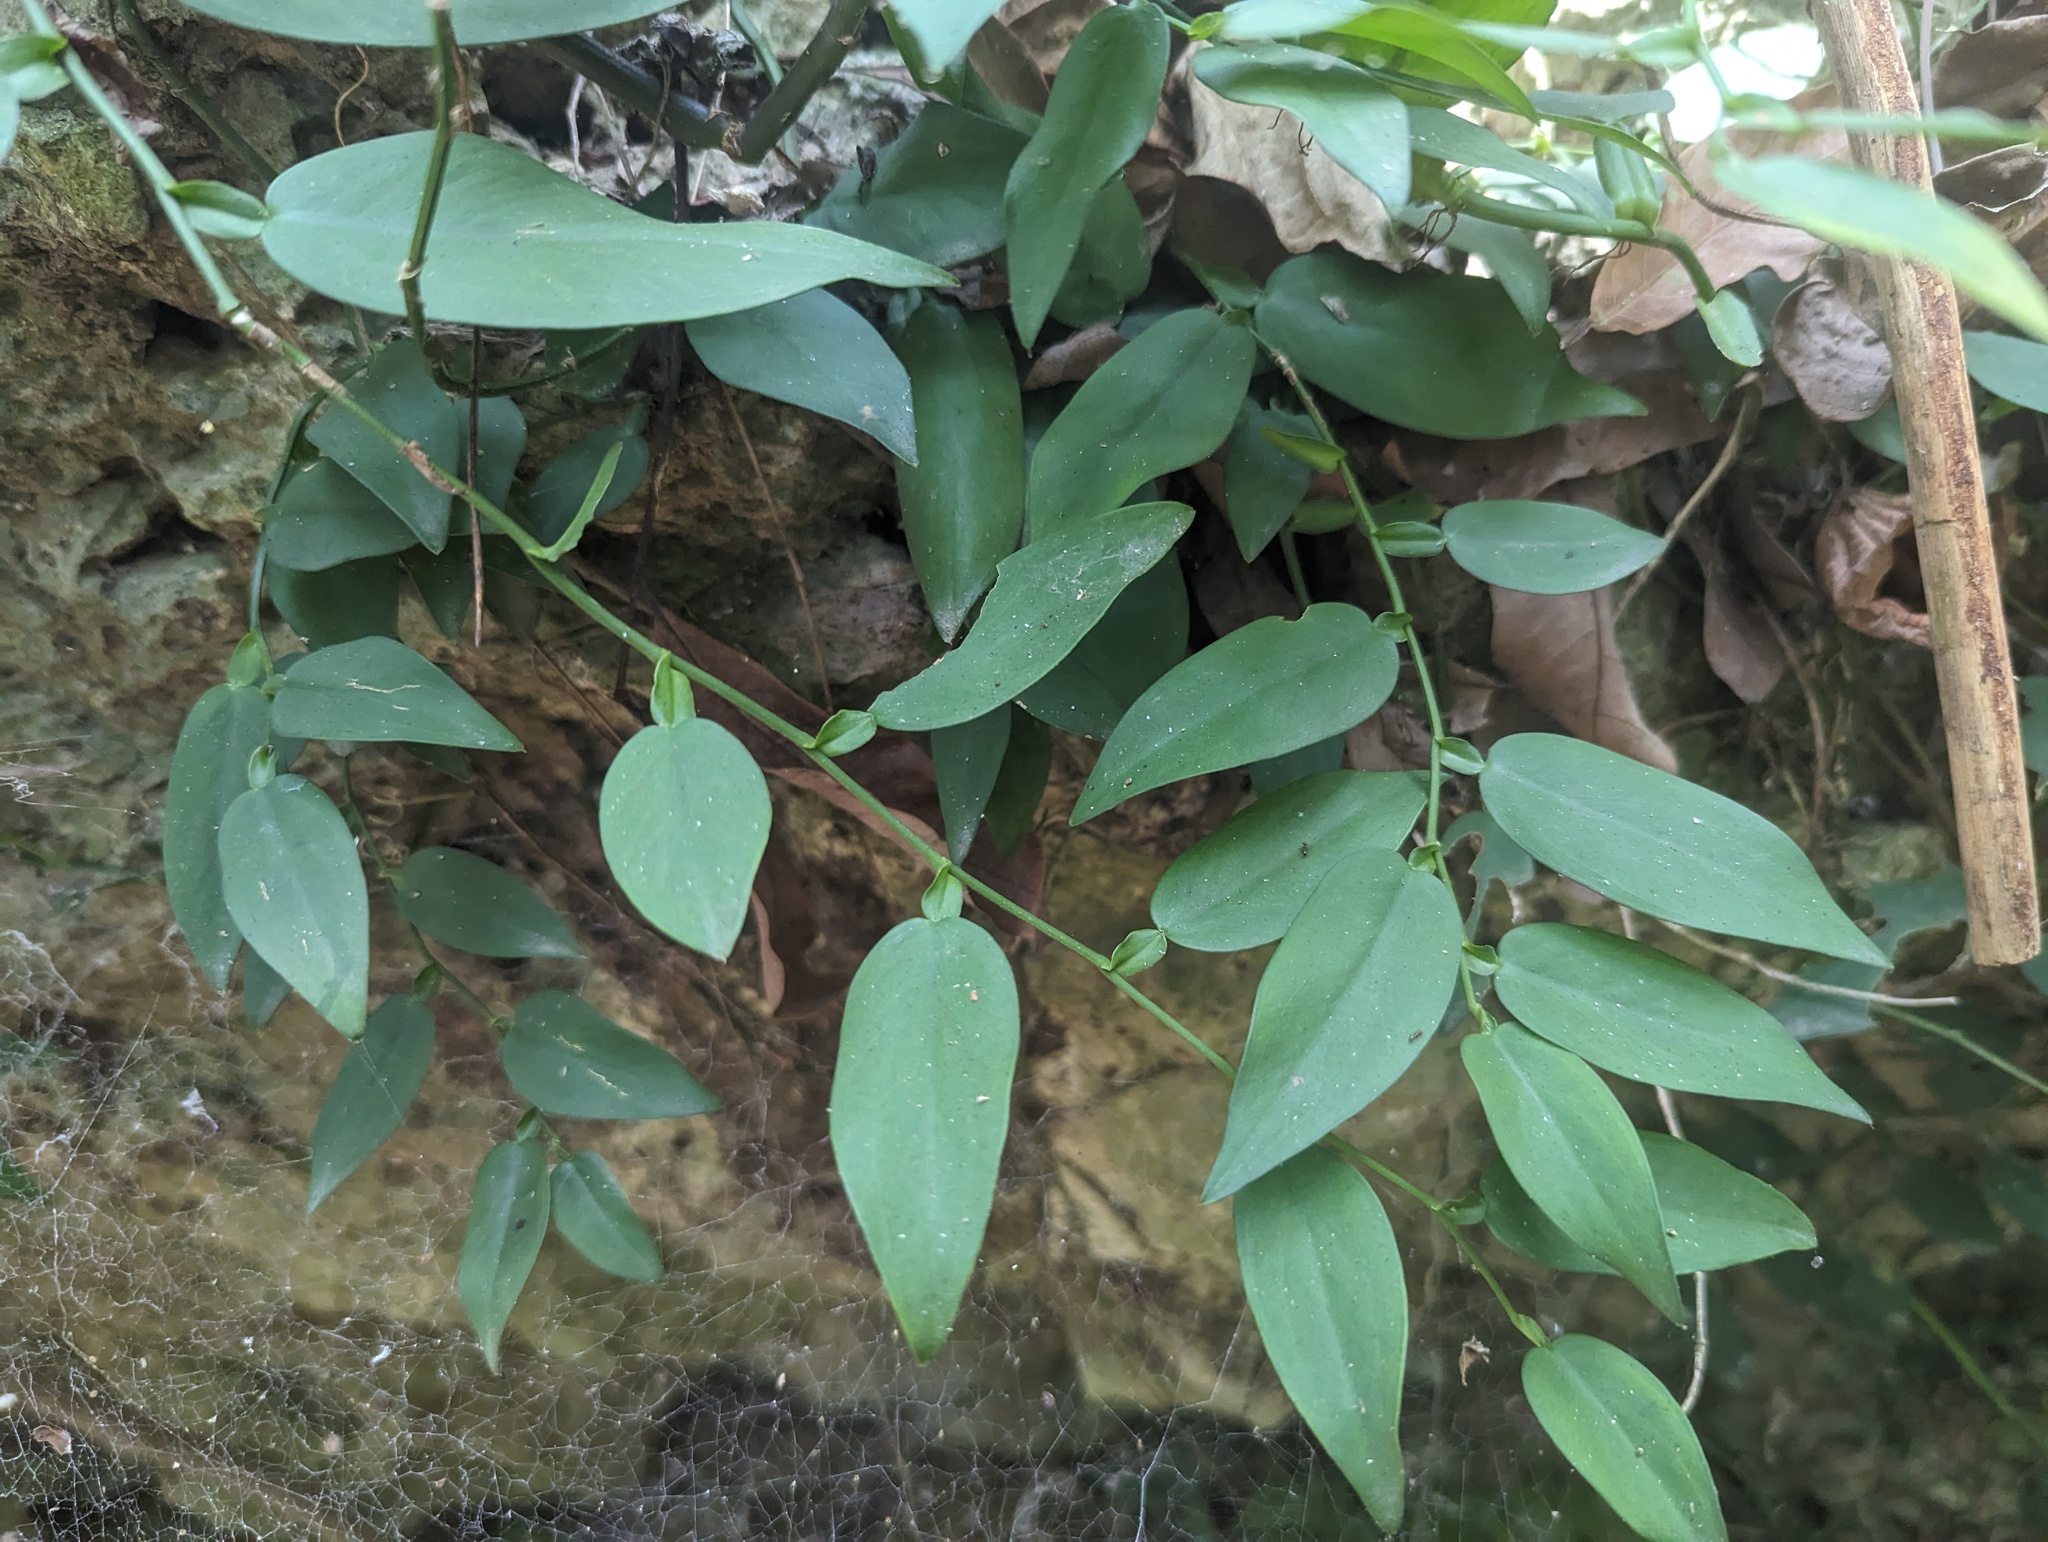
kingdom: Plantae
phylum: Tracheophyta
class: Liliopsida
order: Alismatales
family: Araceae
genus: Pothos
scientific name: Pothos chinensis
